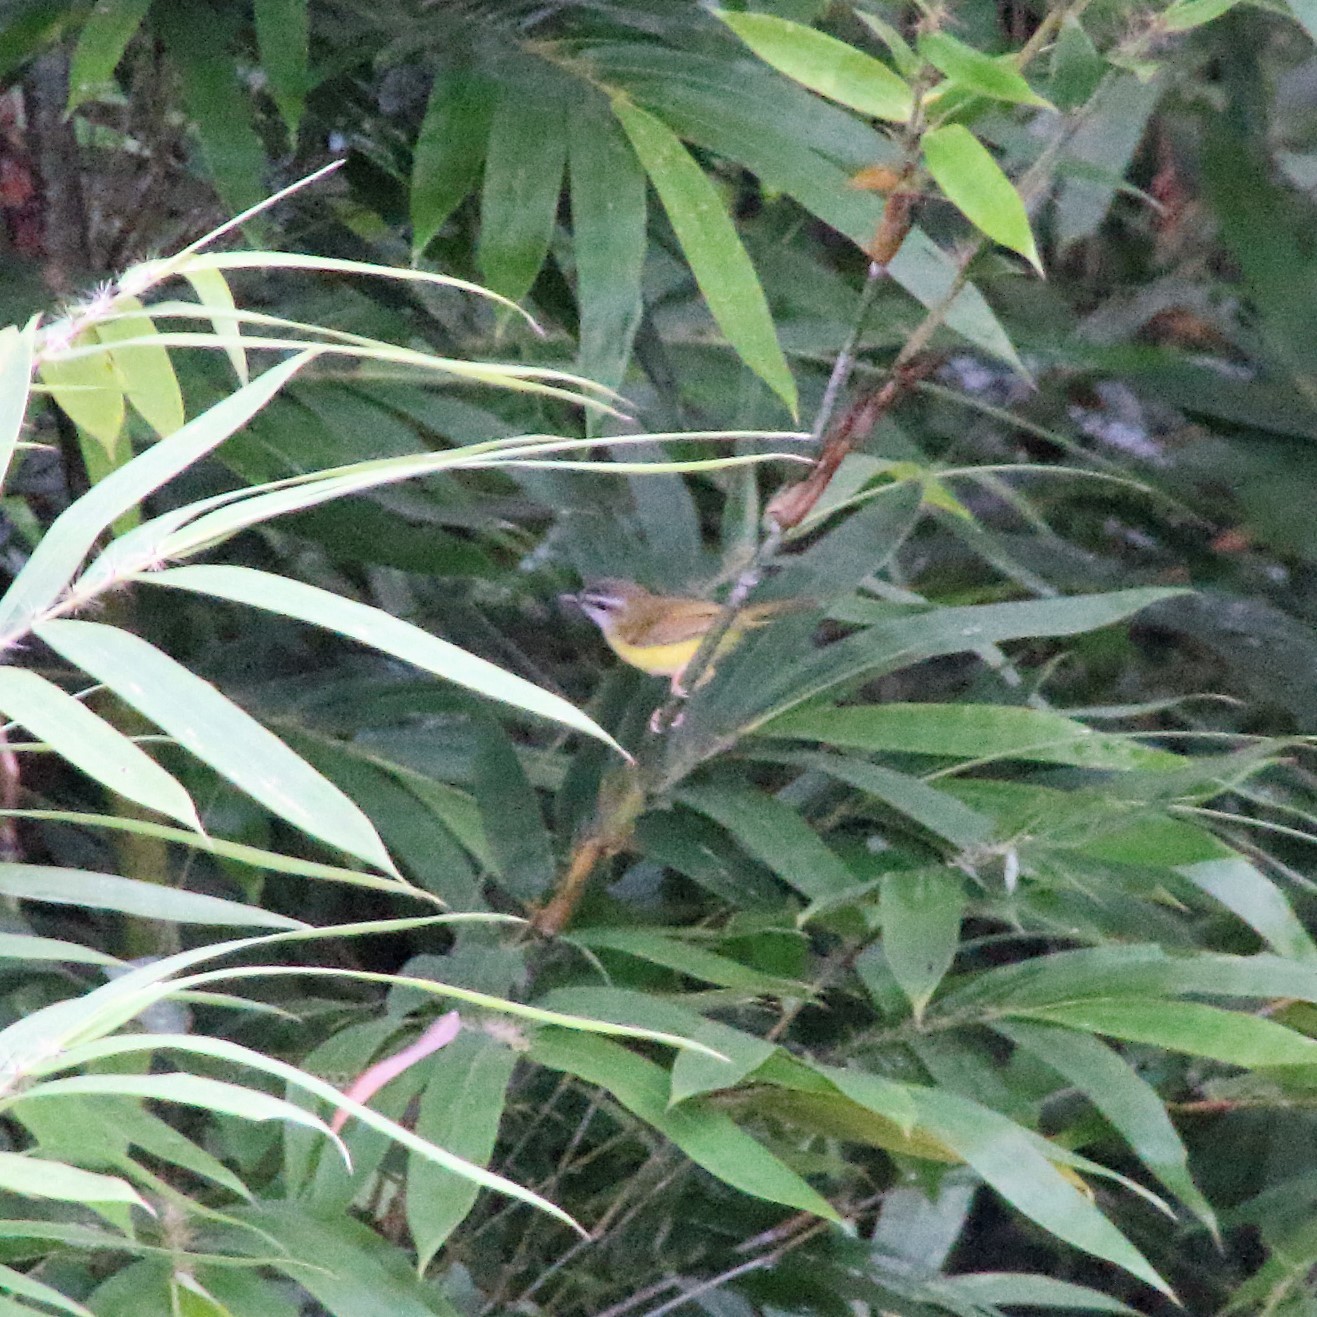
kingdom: Animalia
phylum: Chordata
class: Aves
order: Passeriformes
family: Cettiidae
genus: Abroscopus
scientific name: Abroscopus superciliaris
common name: Yellow-bellied warbler
